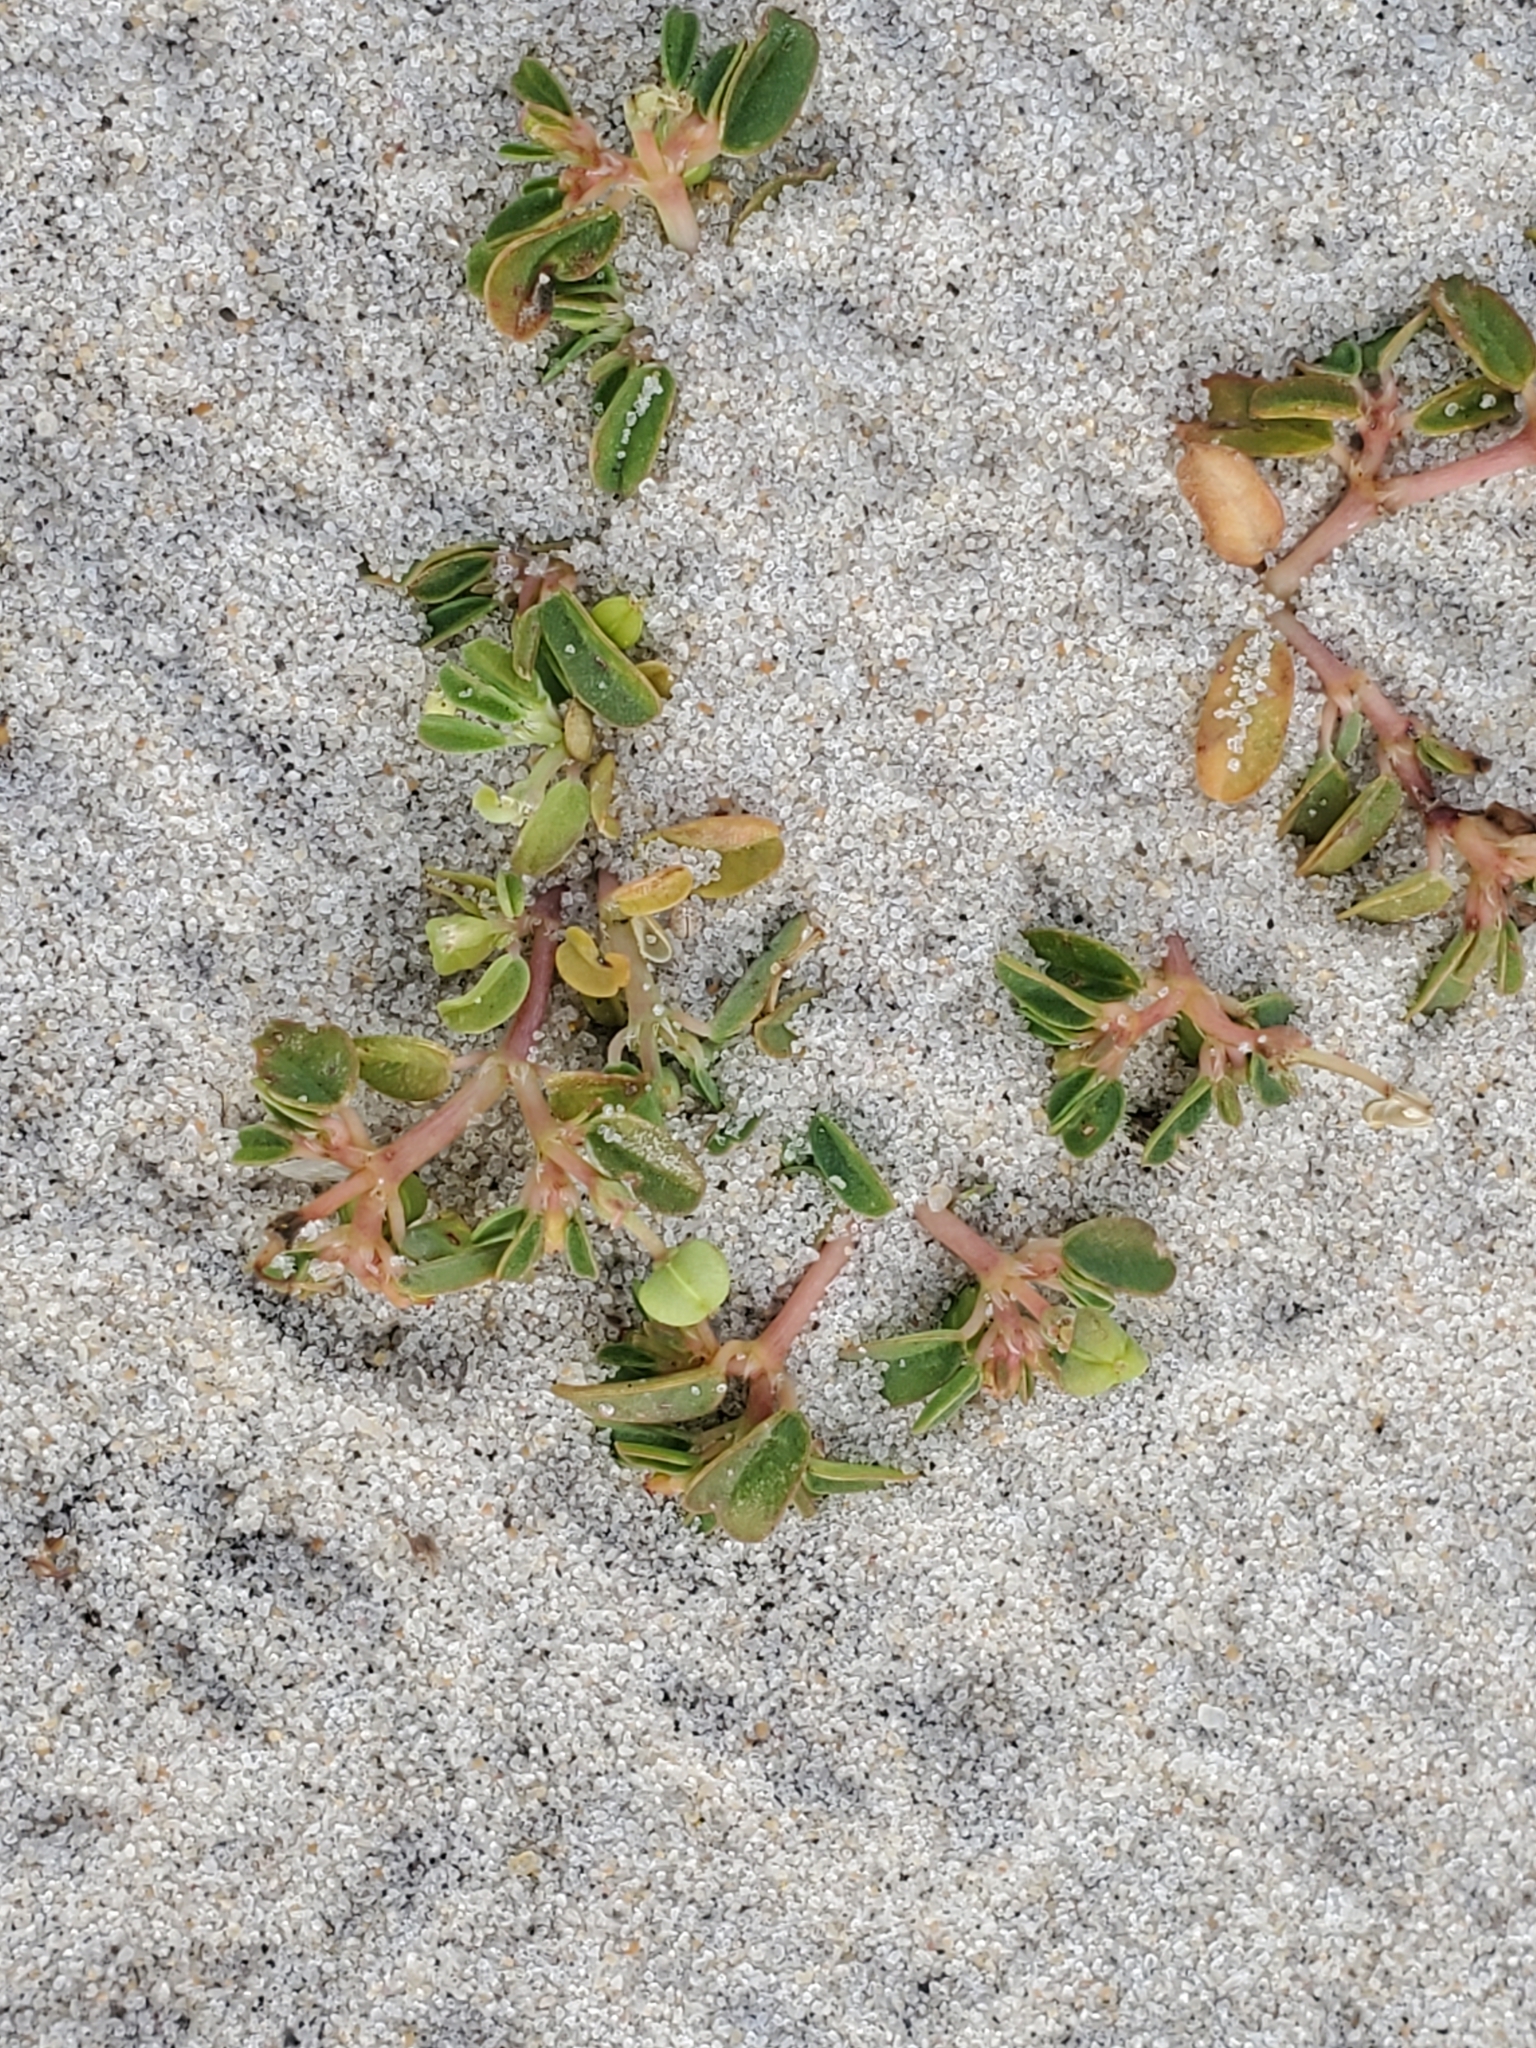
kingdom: Plantae
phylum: Tracheophyta
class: Magnoliopsida
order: Malpighiales
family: Euphorbiaceae
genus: Euphorbia
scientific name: Euphorbia polygonifolia
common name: Knotweed spurge
